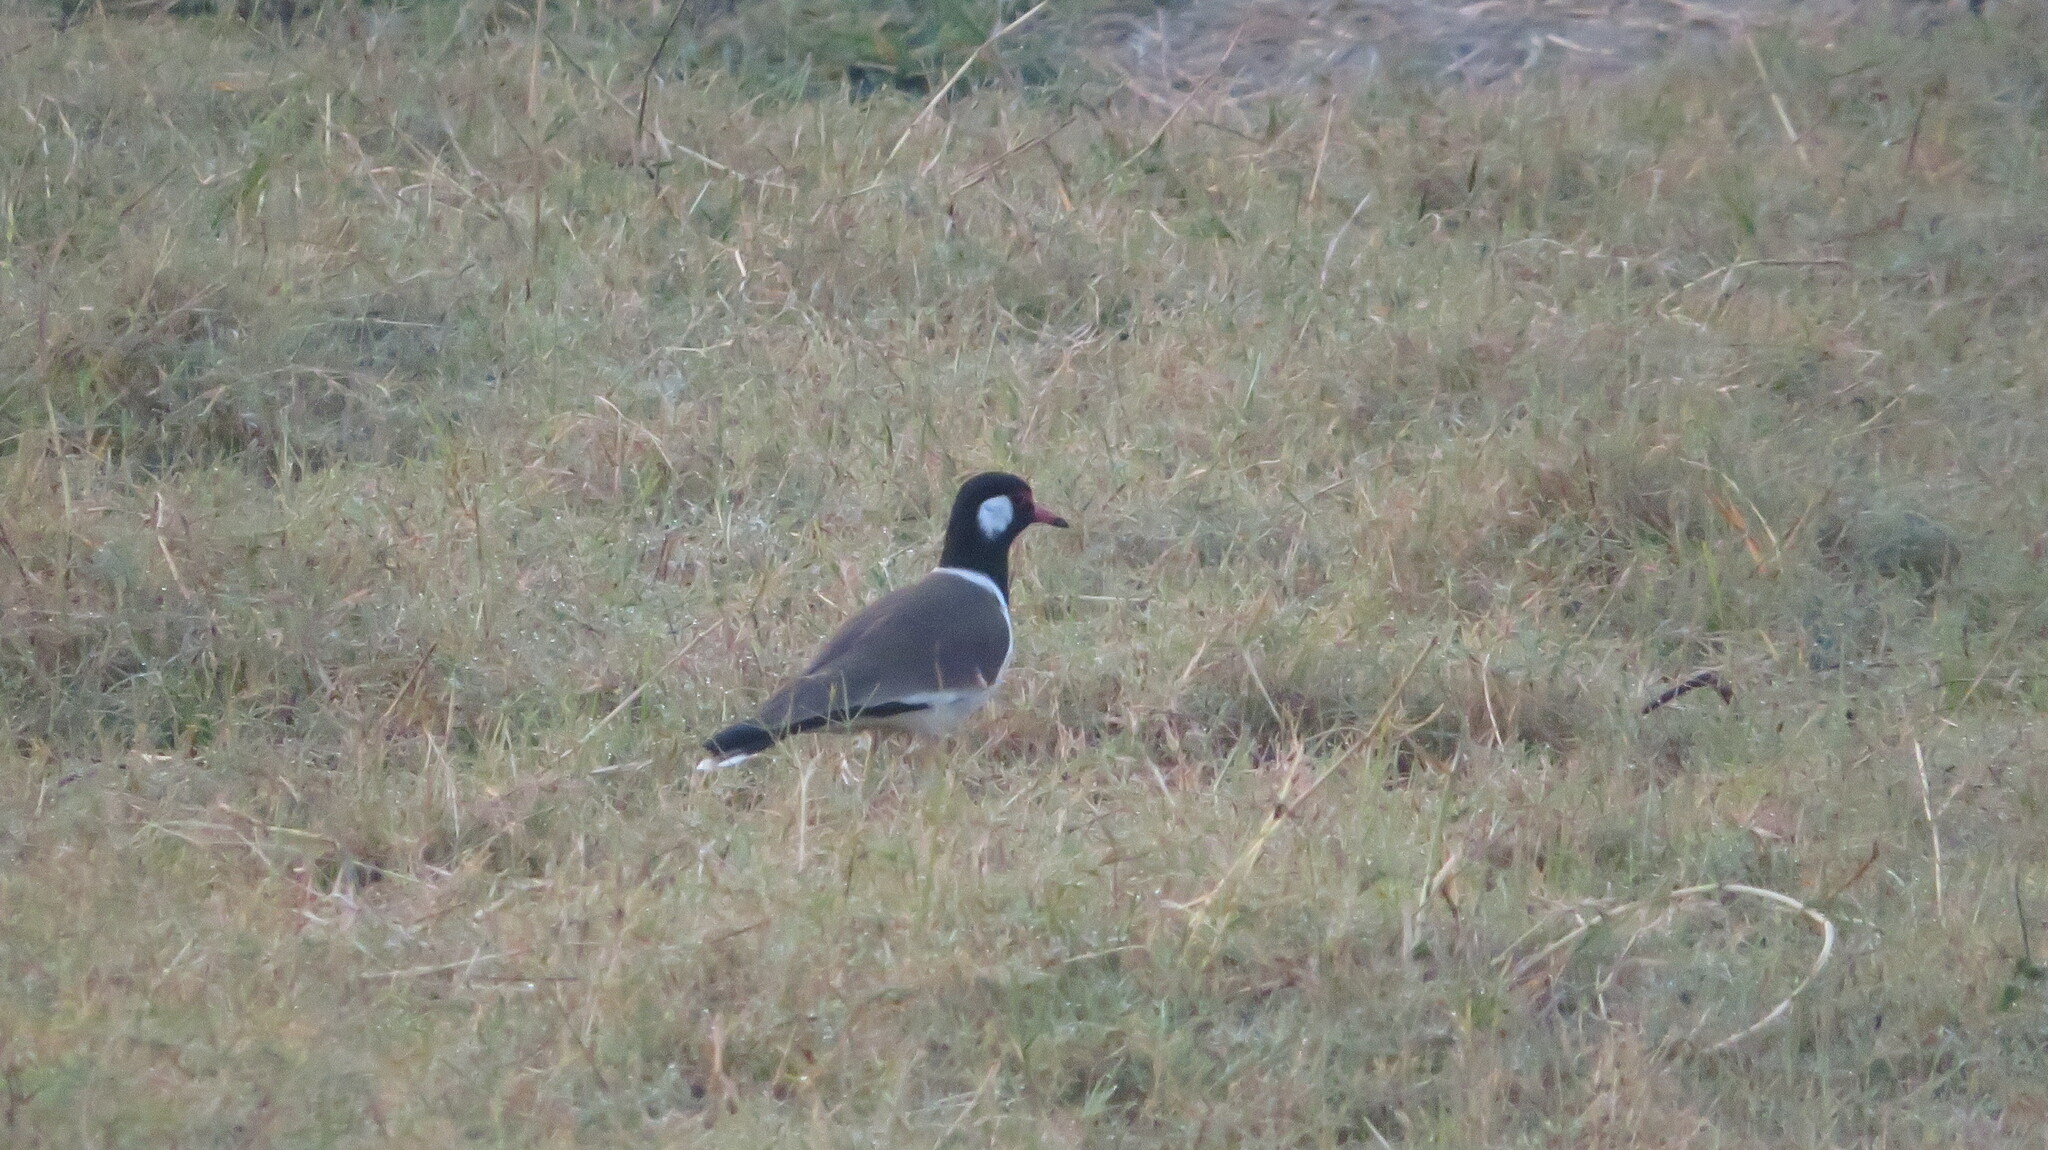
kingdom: Animalia
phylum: Chordata
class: Aves
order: Charadriiformes
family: Charadriidae
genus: Vanellus
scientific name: Vanellus indicus
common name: Red-wattled lapwing
